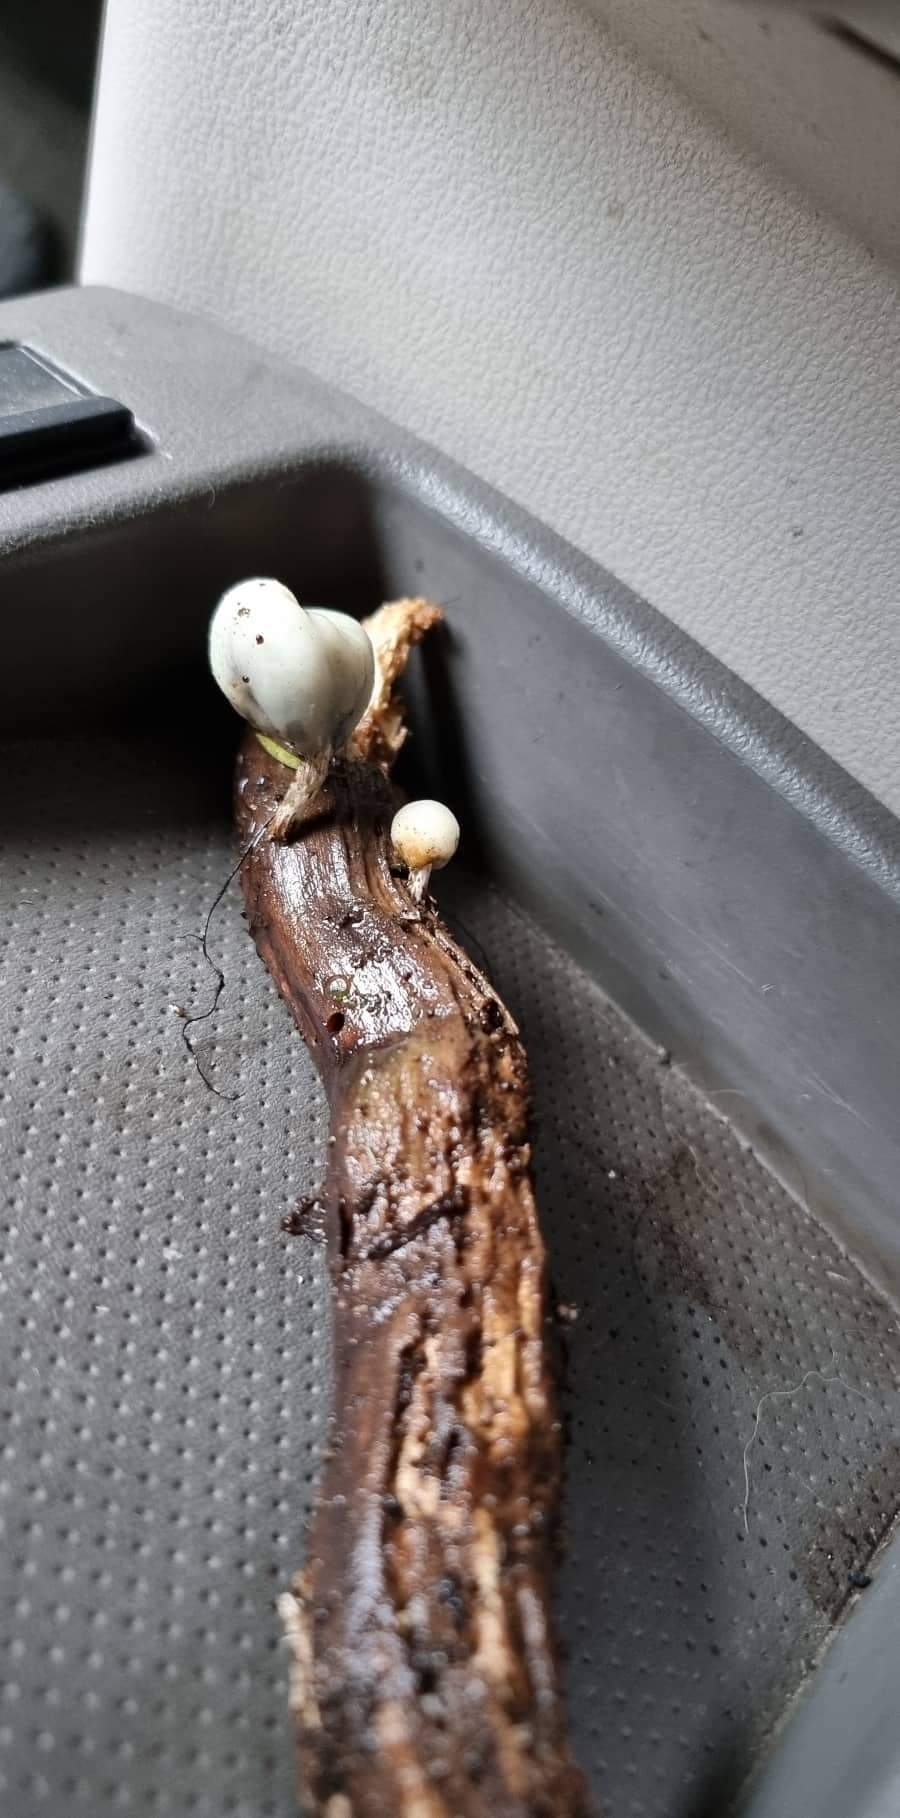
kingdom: Fungi
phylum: Basidiomycota
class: Agaricomycetes
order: Agaricales
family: Hymenogastraceae
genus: Psilocybe
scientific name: Psilocybe weraroa
